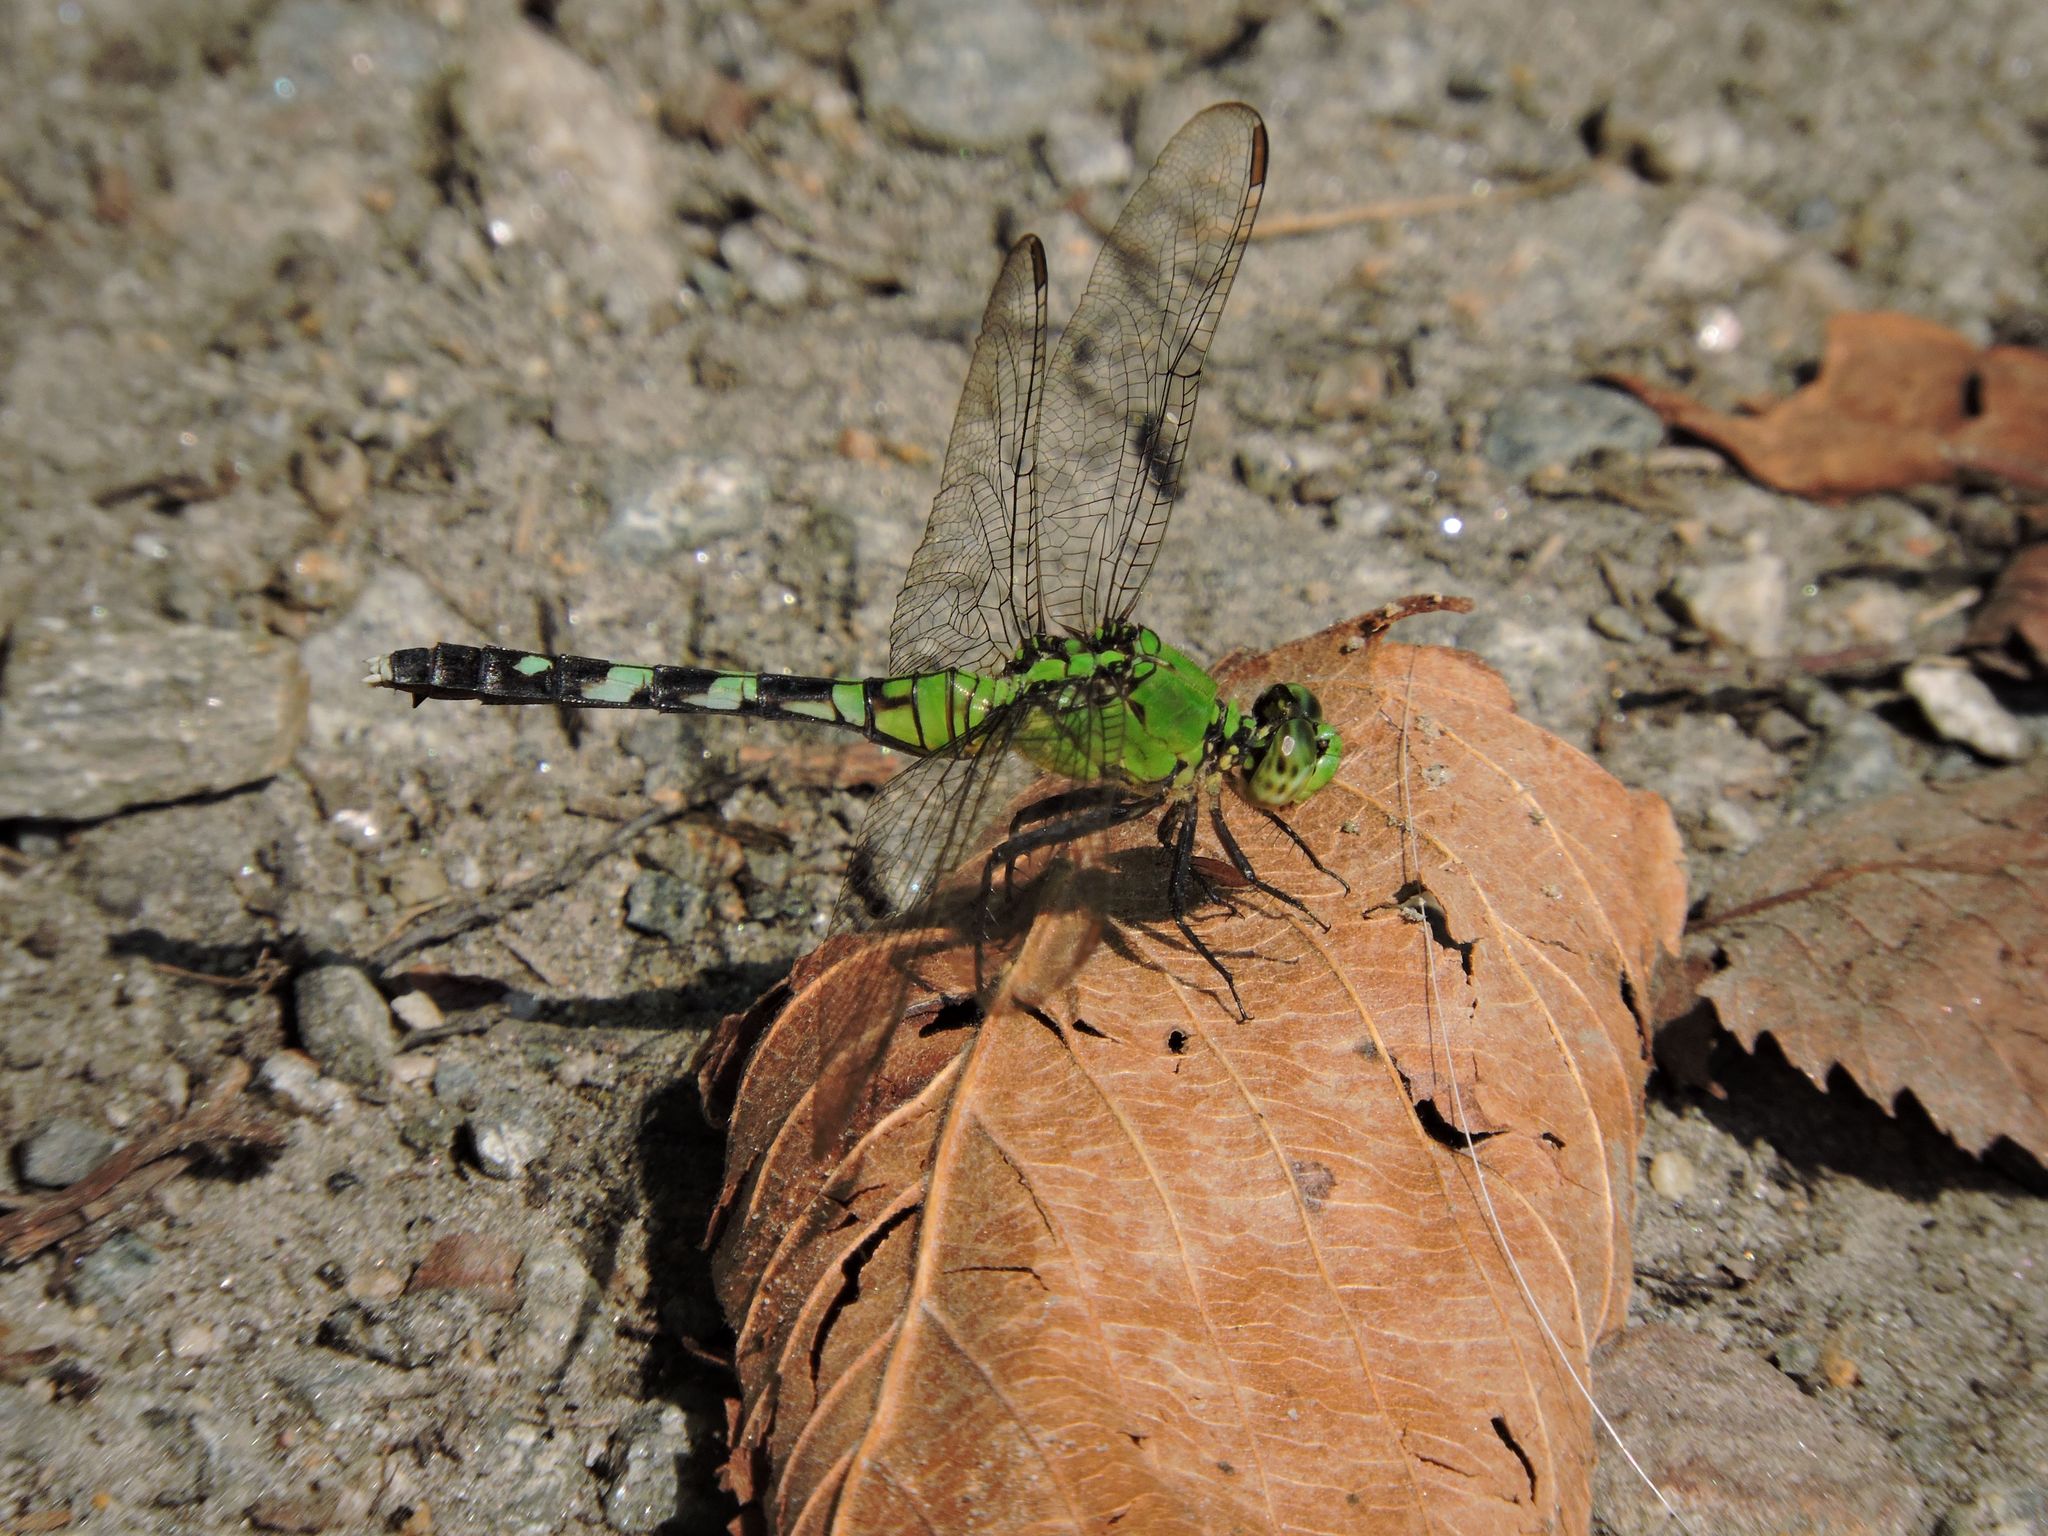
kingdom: Animalia
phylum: Arthropoda
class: Insecta
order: Odonata
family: Libellulidae
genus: Erythemis
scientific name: Erythemis simplicicollis
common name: Eastern pondhawk
